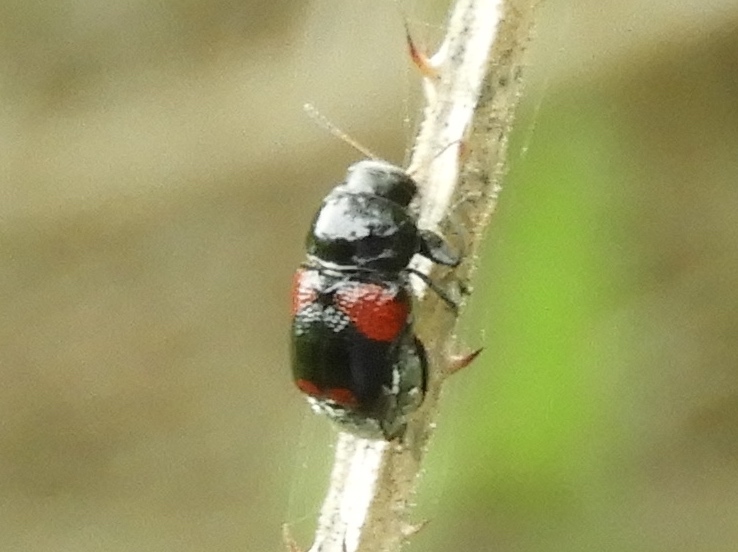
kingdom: Animalia
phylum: Arthropoda
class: Insecta
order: Coleoptera
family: Chrysomelidae
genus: Griburius
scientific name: Griburius
